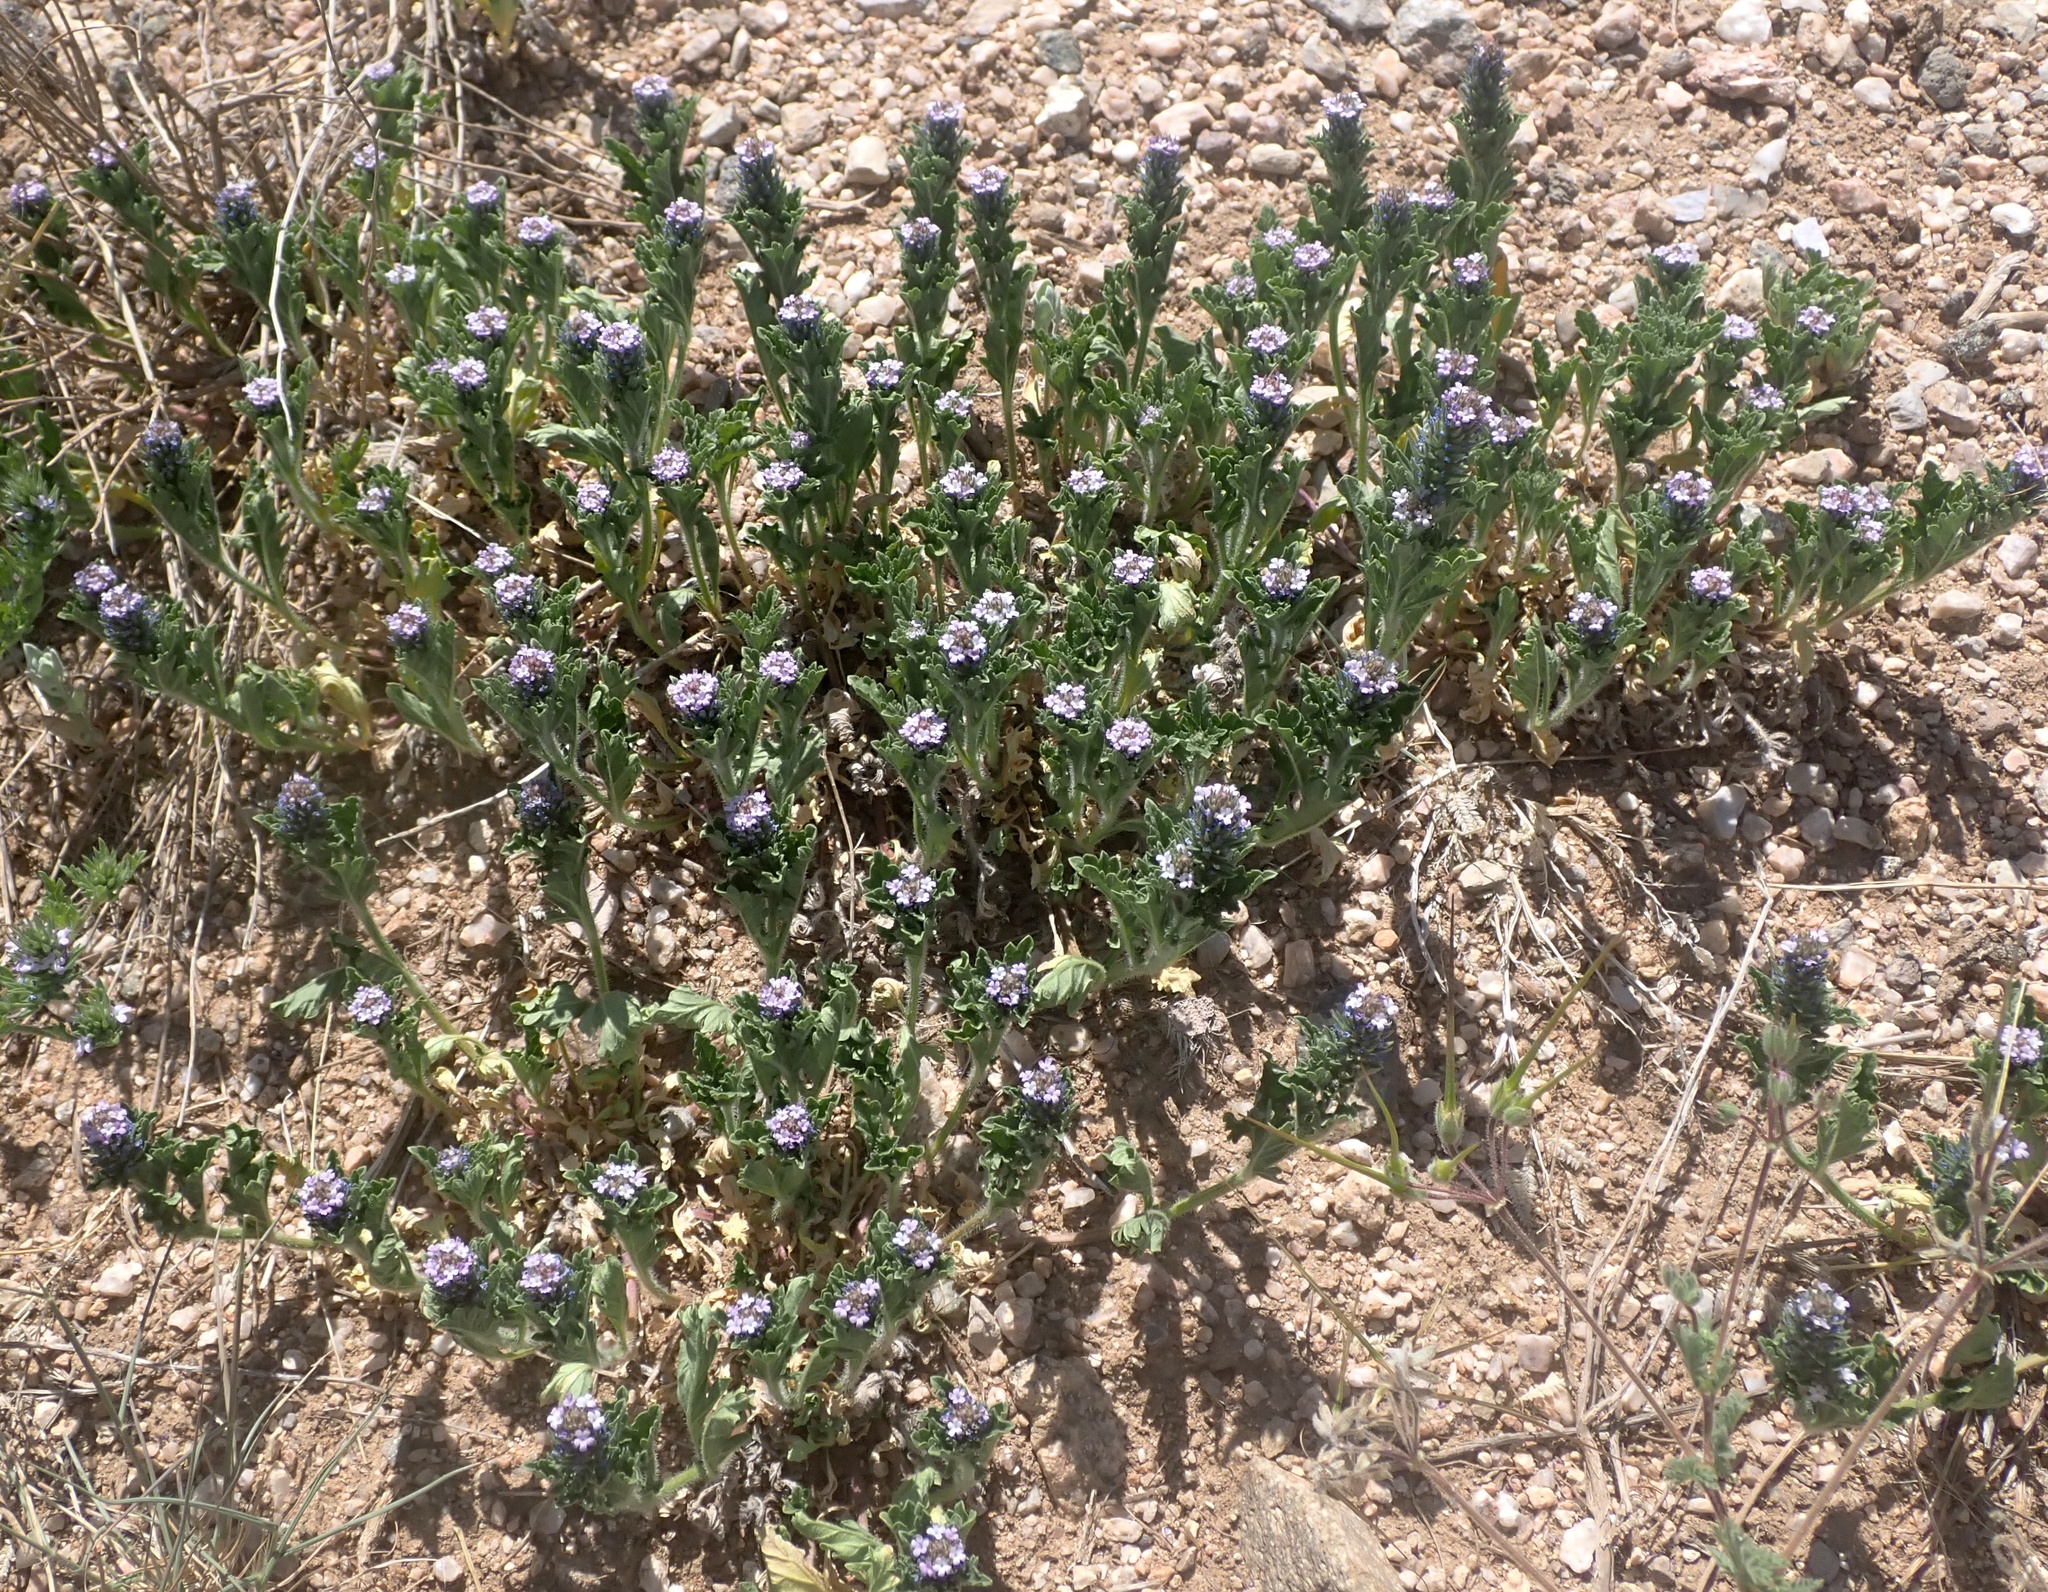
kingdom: Plantae
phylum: Tracheophyta
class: Magnoliopsida
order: Lamiales
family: Verbenaceae
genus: Verbena
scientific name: Verbena gooddingii
